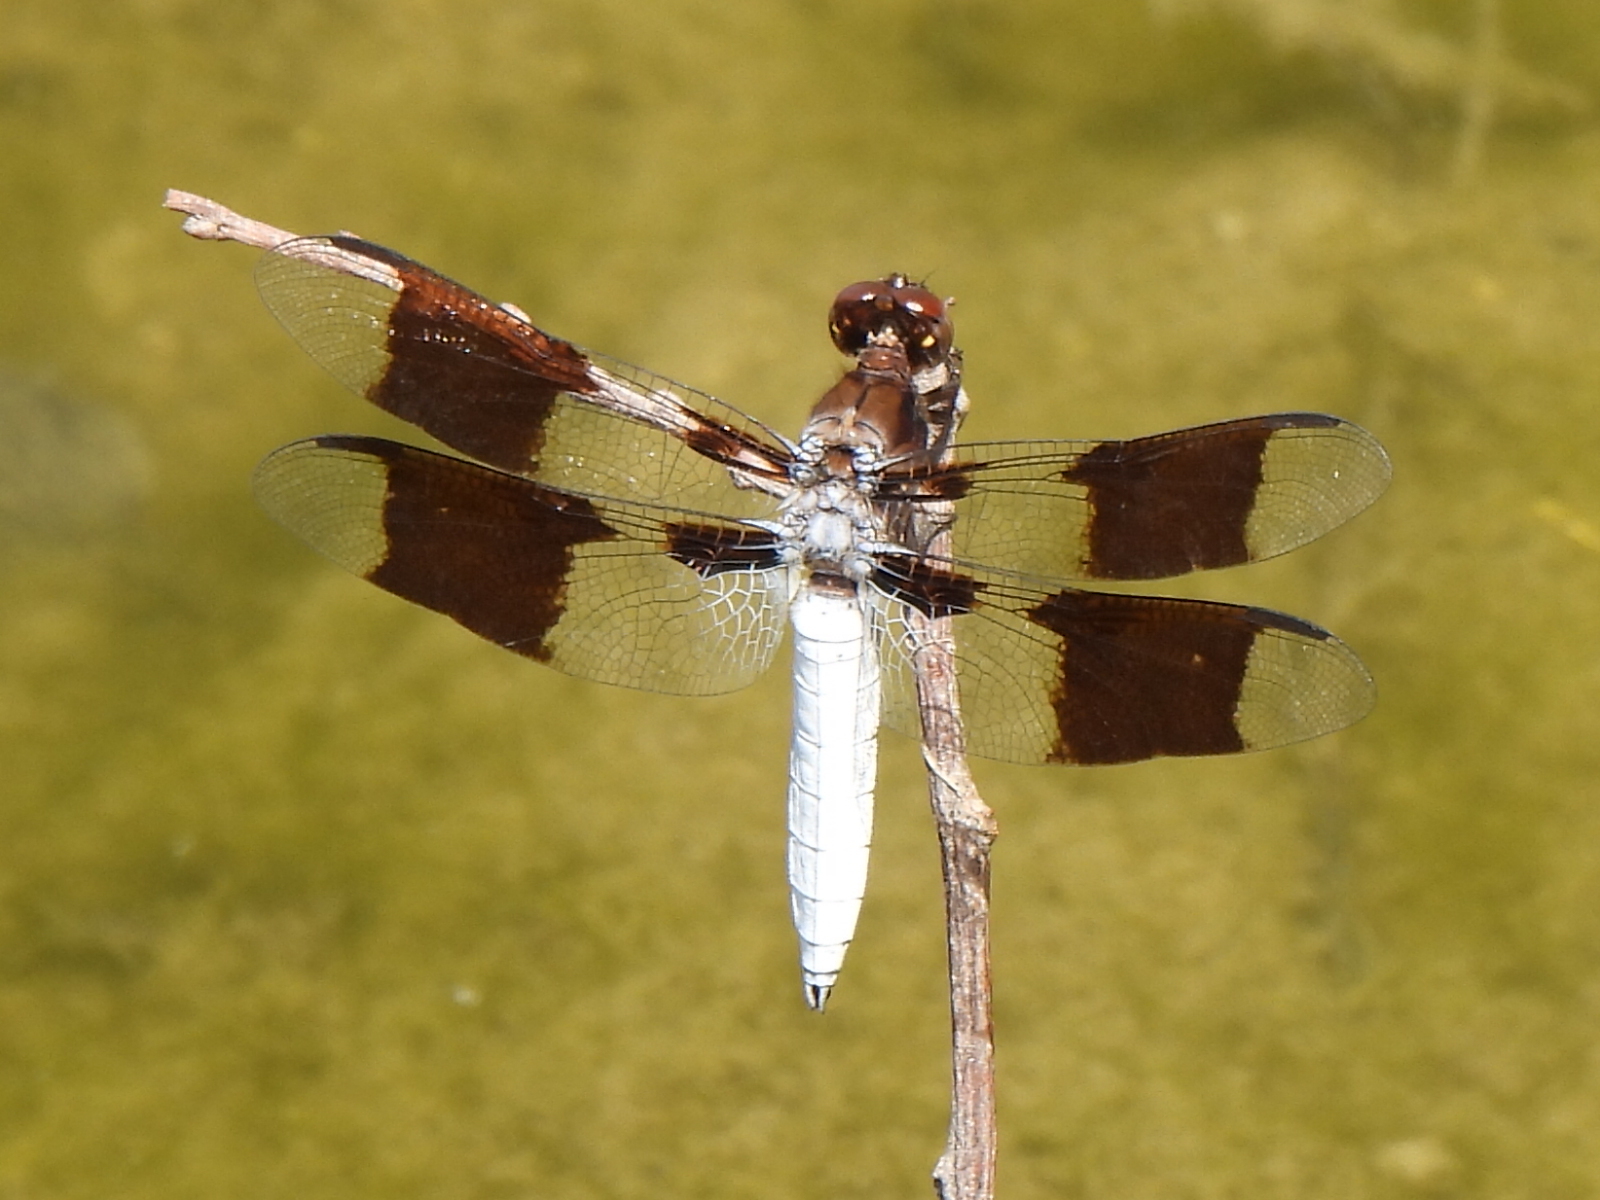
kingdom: Animalia
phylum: Arthropoda
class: Insecta
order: Odonata
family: Libellulidae
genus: Plathemis
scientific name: Plathemis lydia
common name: Common whitetail
